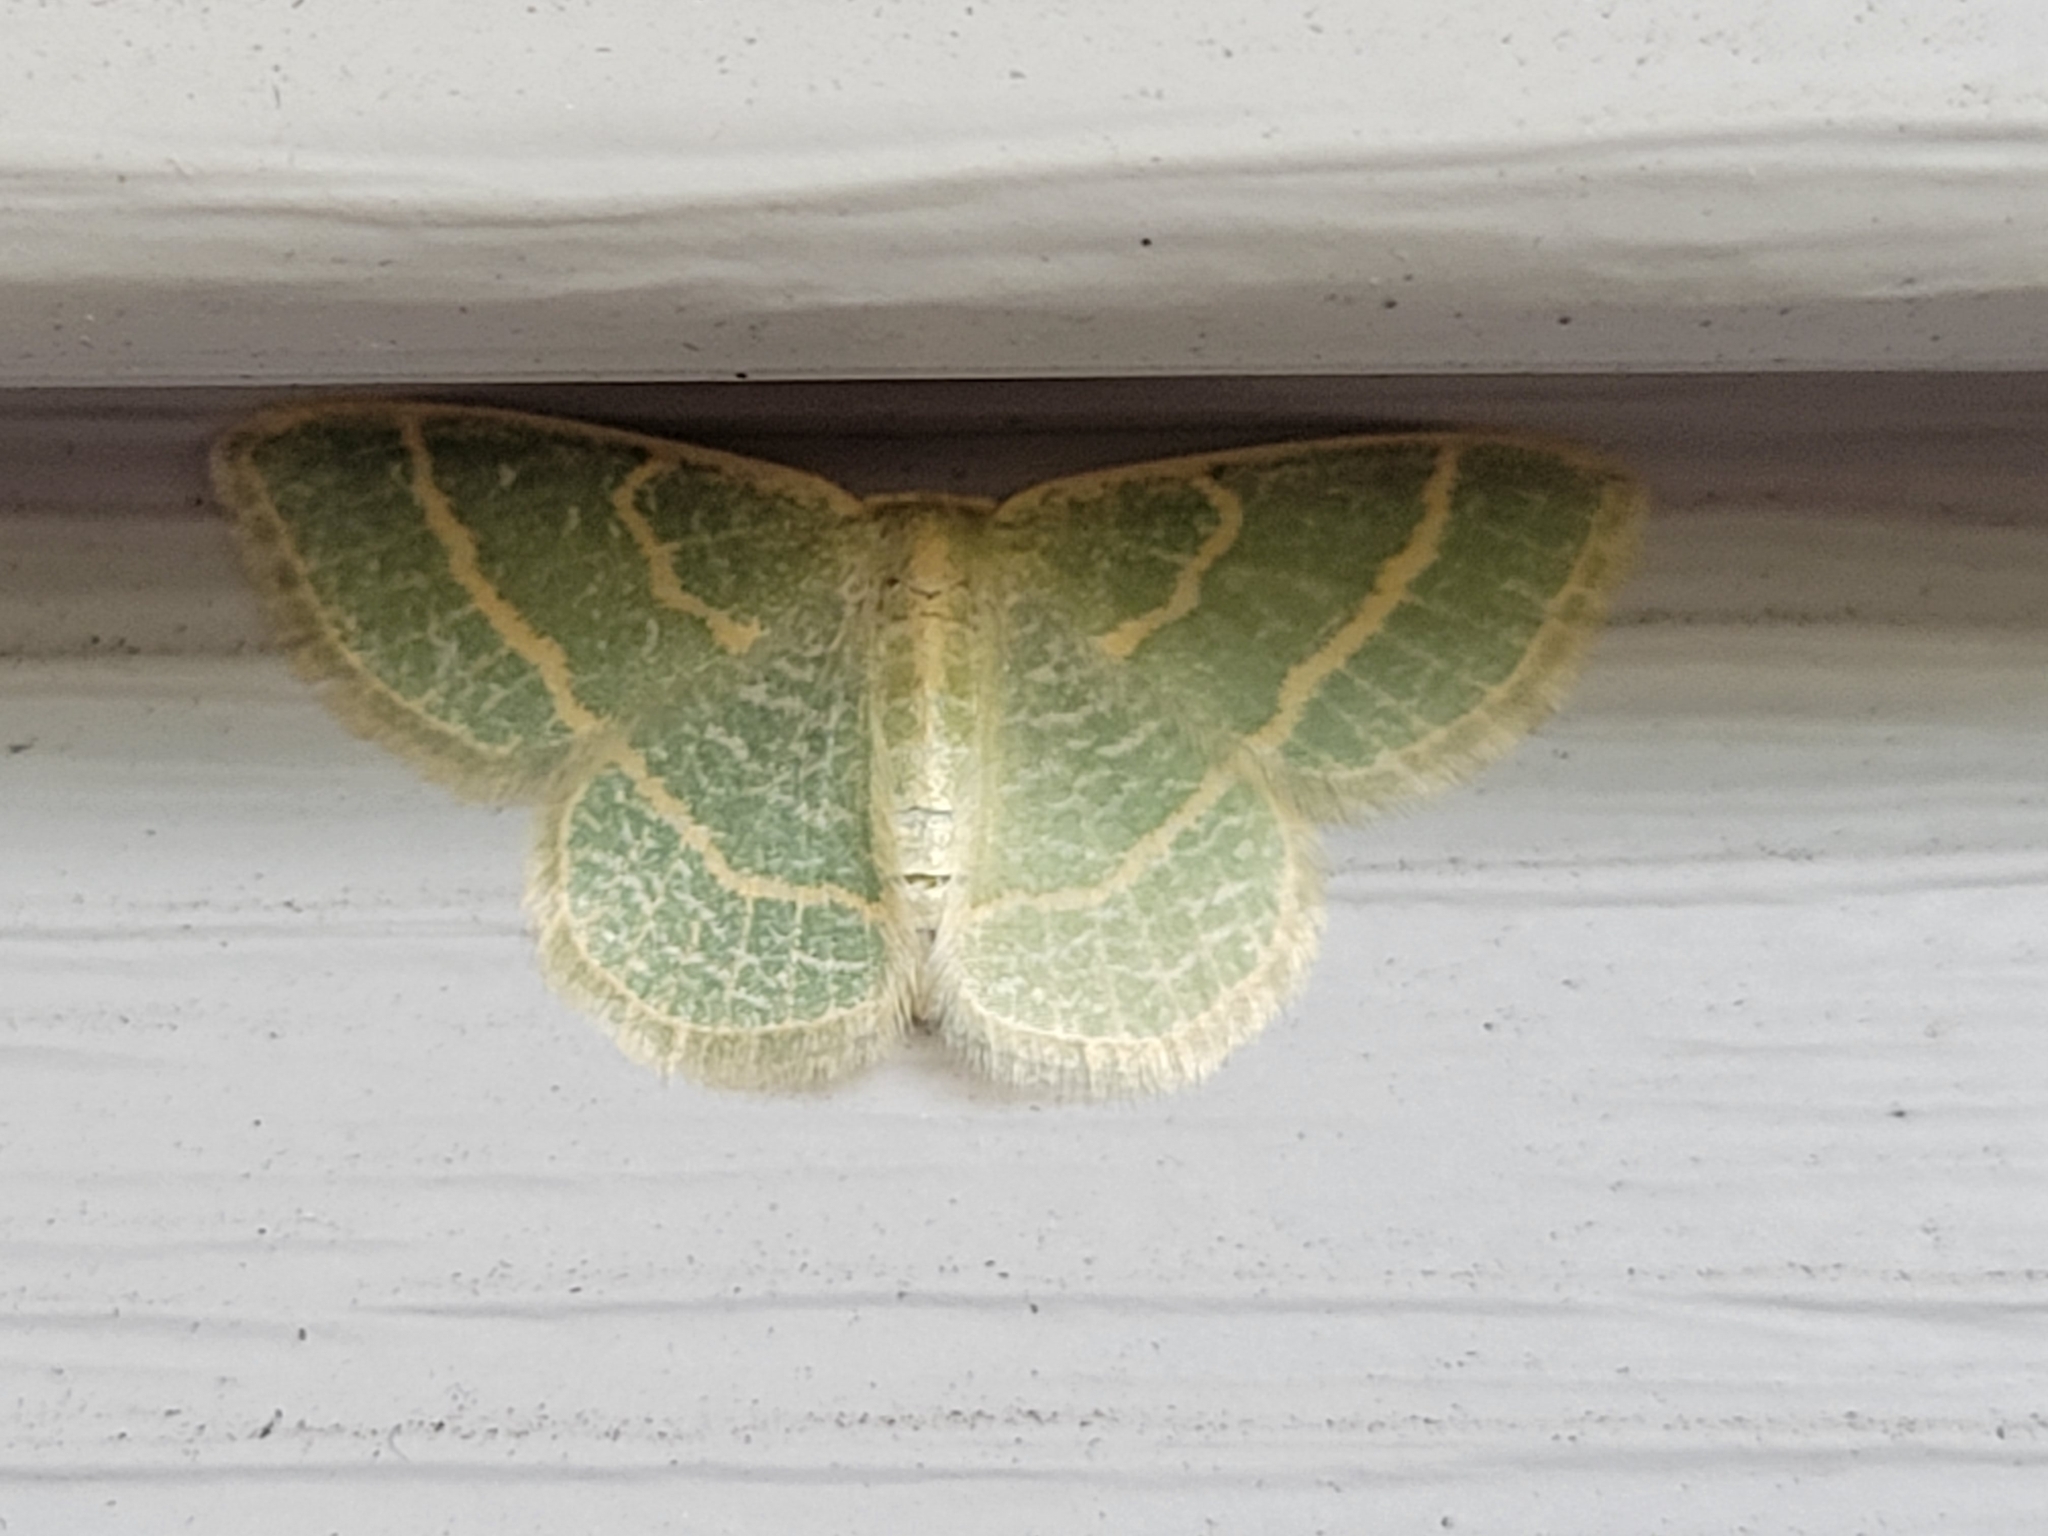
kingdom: Animalia
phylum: Arthropoda
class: Insecta
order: Lepidoptera
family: Geometridae
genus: Chlorochlamys
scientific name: Chlorochlamys chloroleucaria
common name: Blackberry looper
